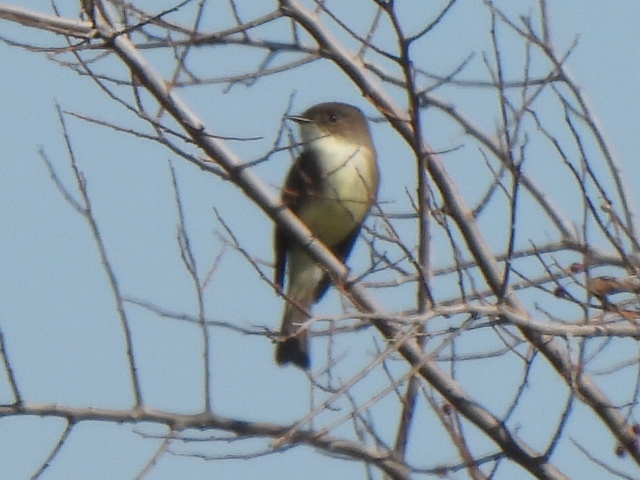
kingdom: Animalia
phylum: Chordata
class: Aves
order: Passeriformes
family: Tyrannidae
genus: Sayornis
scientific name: Sayornis phoebe
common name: Eastern phoebe
